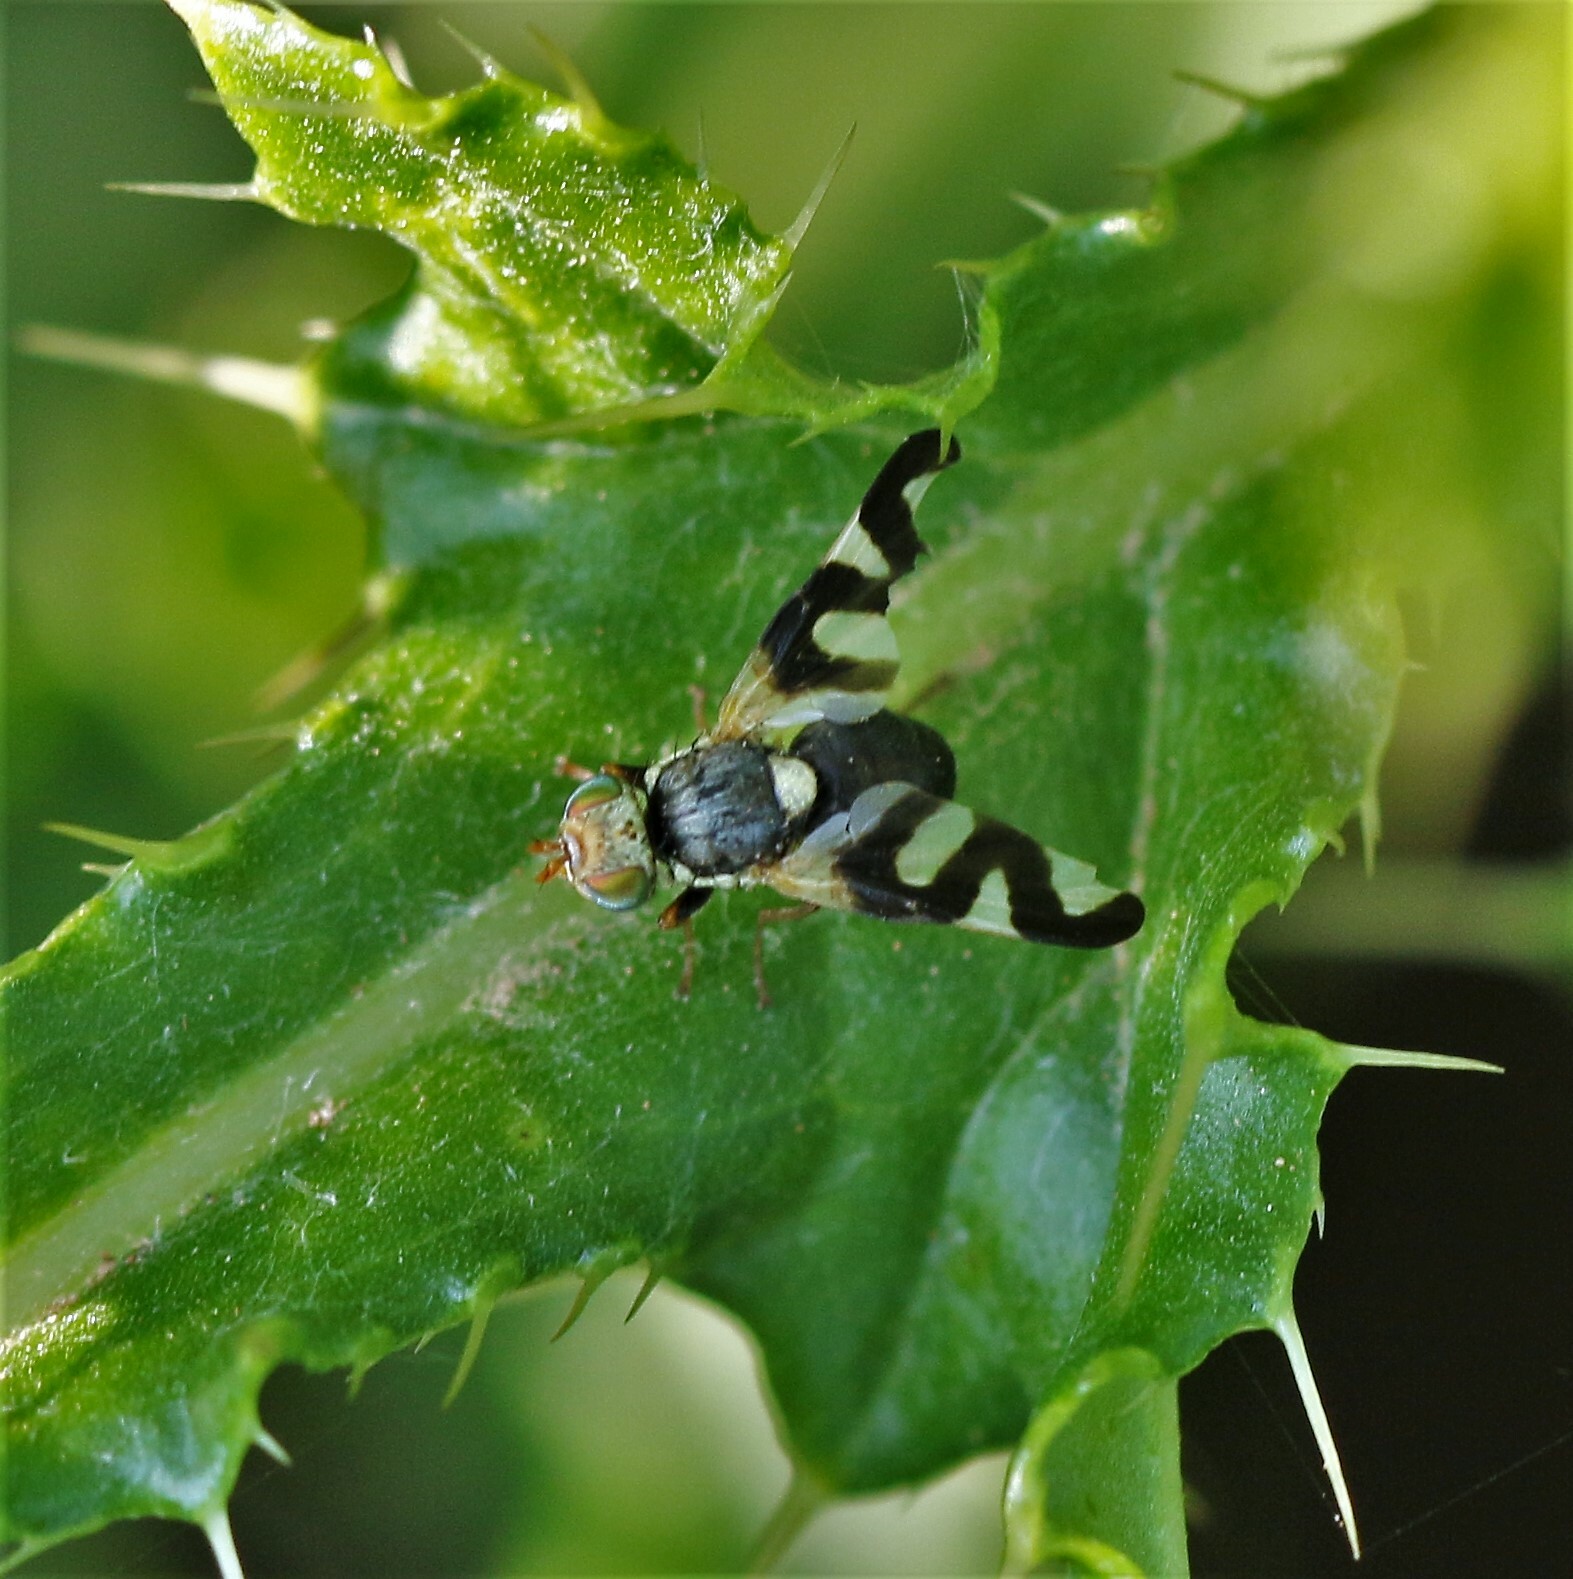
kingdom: Animalia
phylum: Arthropoda
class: Insecta
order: Diptera
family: Tephritidae
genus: Urophora
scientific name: Urophora cardui
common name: Fruit fly
